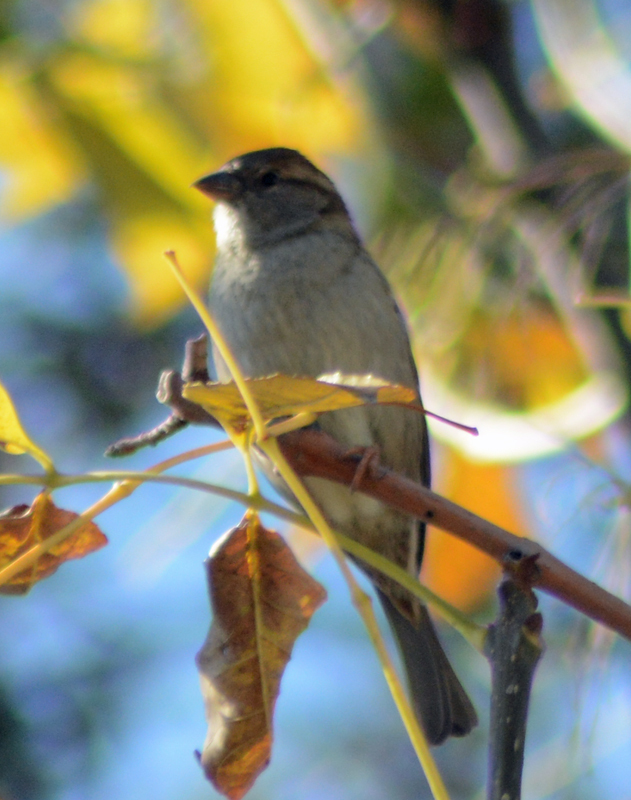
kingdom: Animalia
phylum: Chordata
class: Aves
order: Passeriformes
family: Passeridae
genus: Passer
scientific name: Passer domesticus
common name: House sparrow
